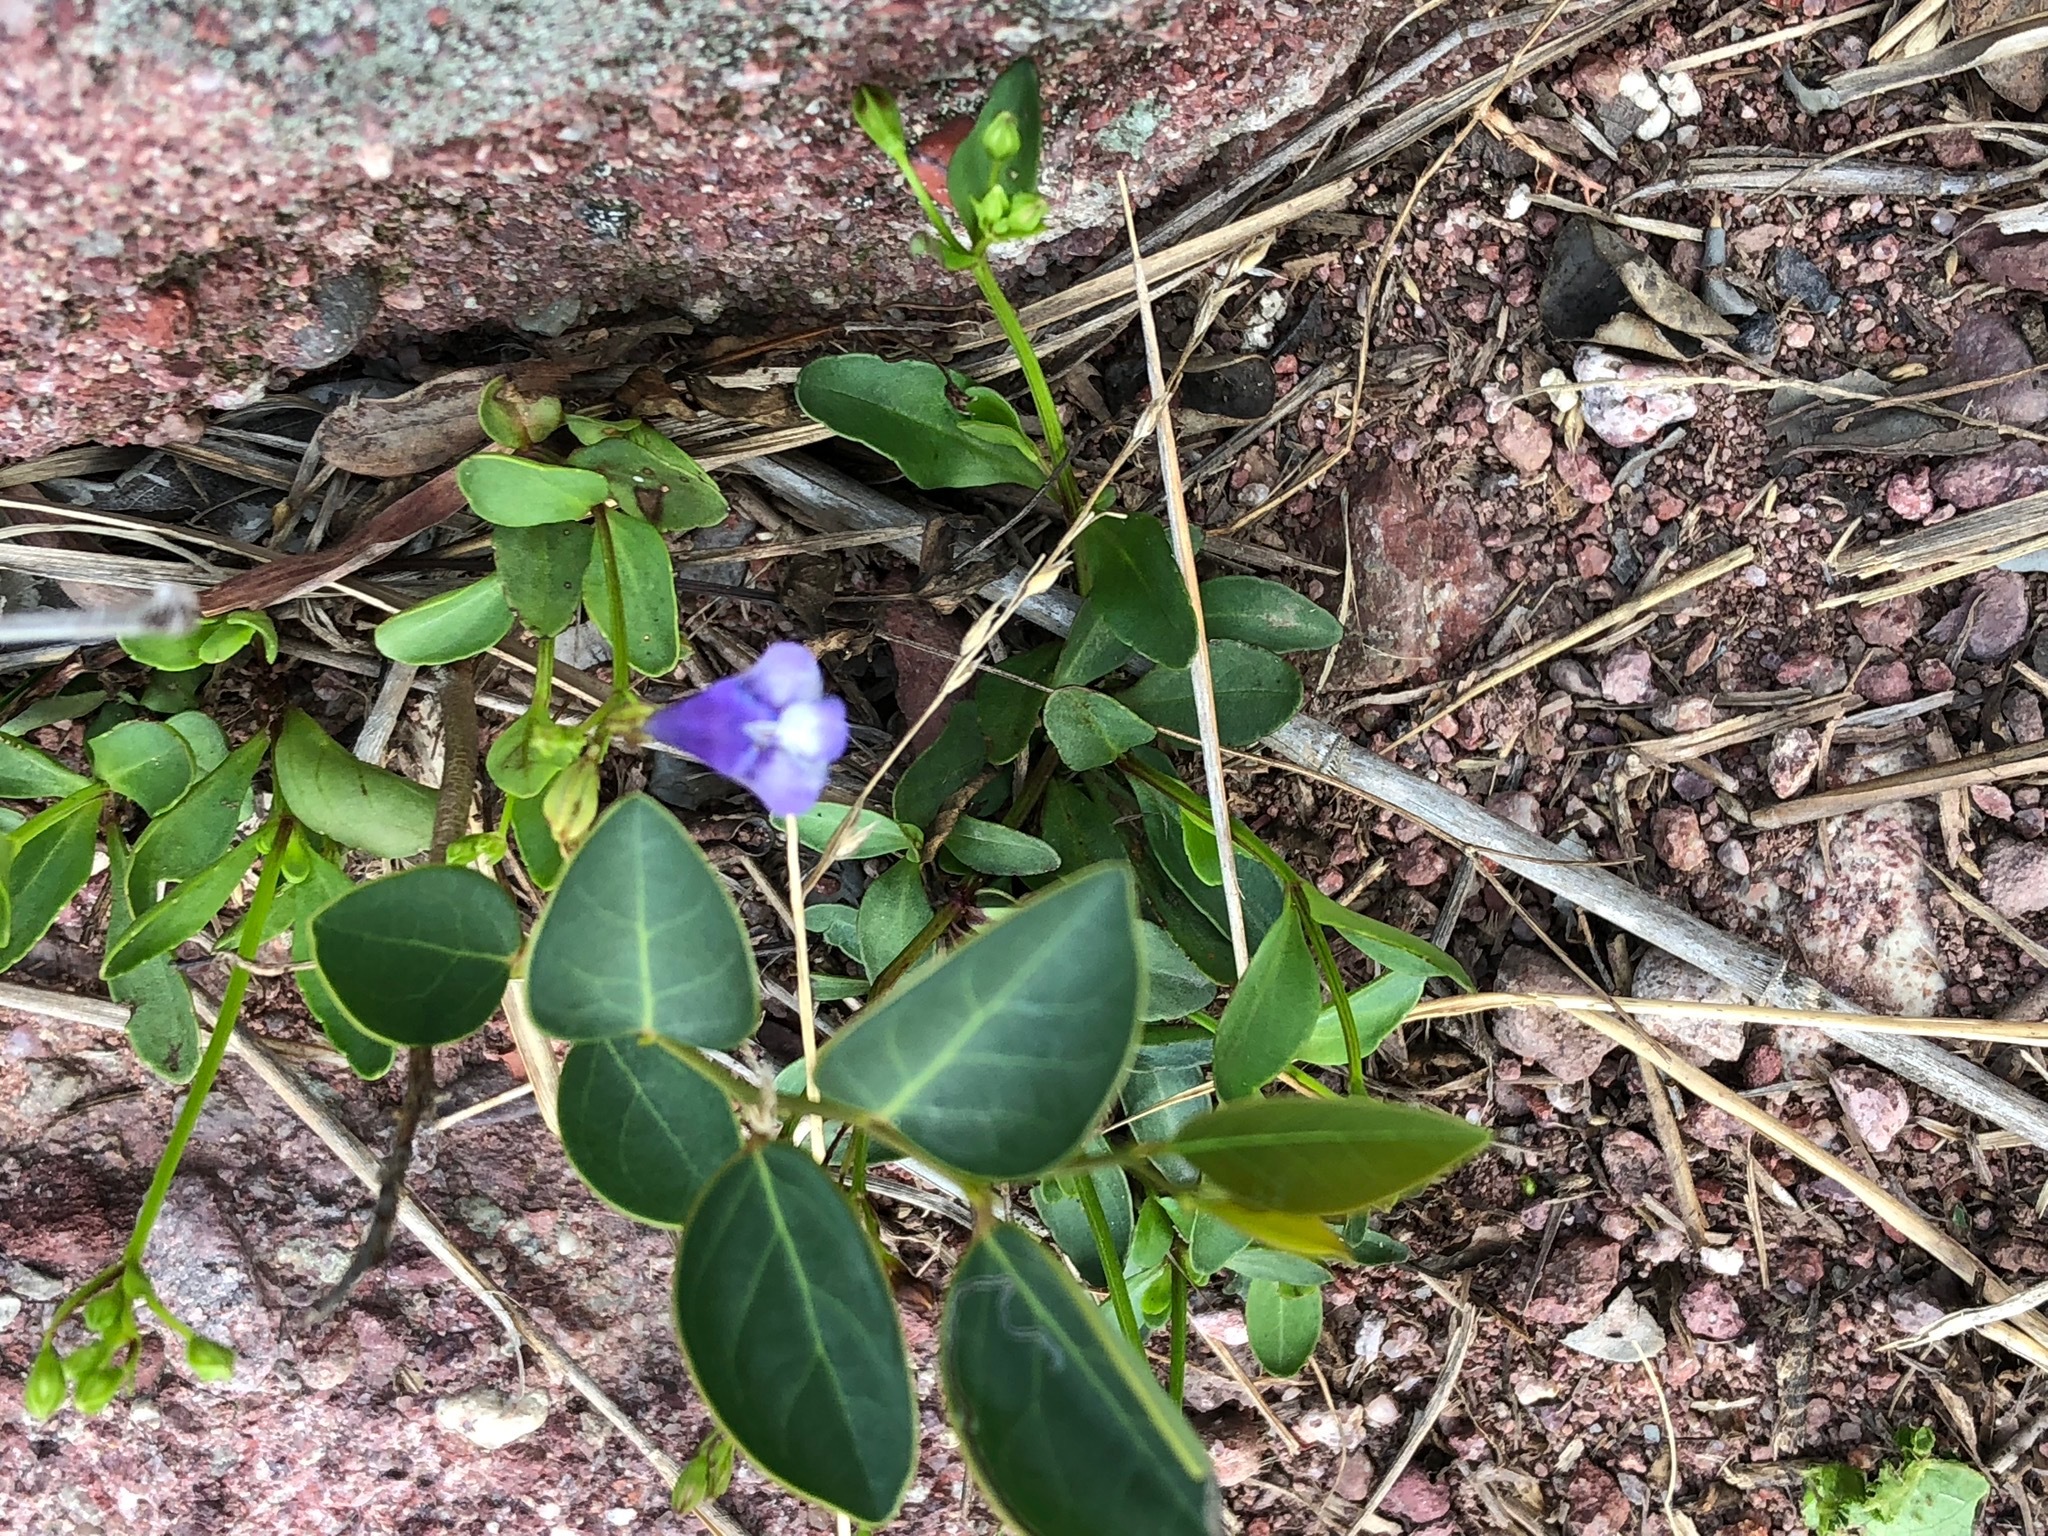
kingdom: Plantae
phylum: Tracheophyta
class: Magnoliopsida
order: Lamiales
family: Lamiaceae
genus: Vitex
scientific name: Vitex rotundifolia
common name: Beach vitex
